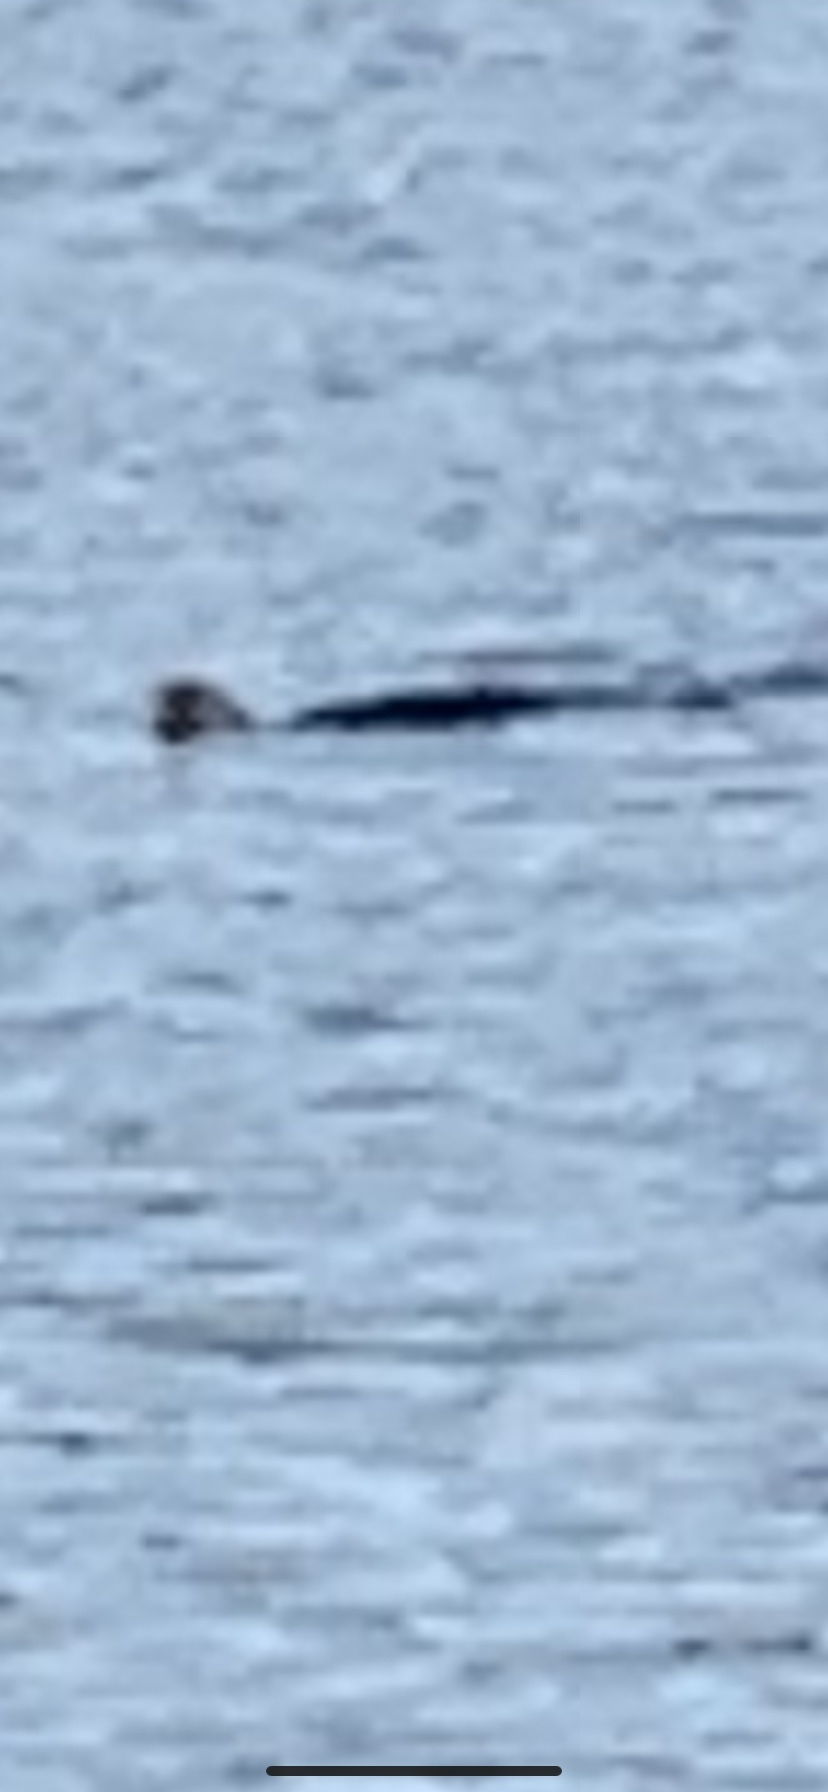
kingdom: Animalia
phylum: Chordata
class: Mammalia
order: Carnivora
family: Mustelidae
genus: Lontra
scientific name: Lontra canadensis
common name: North american river otter
